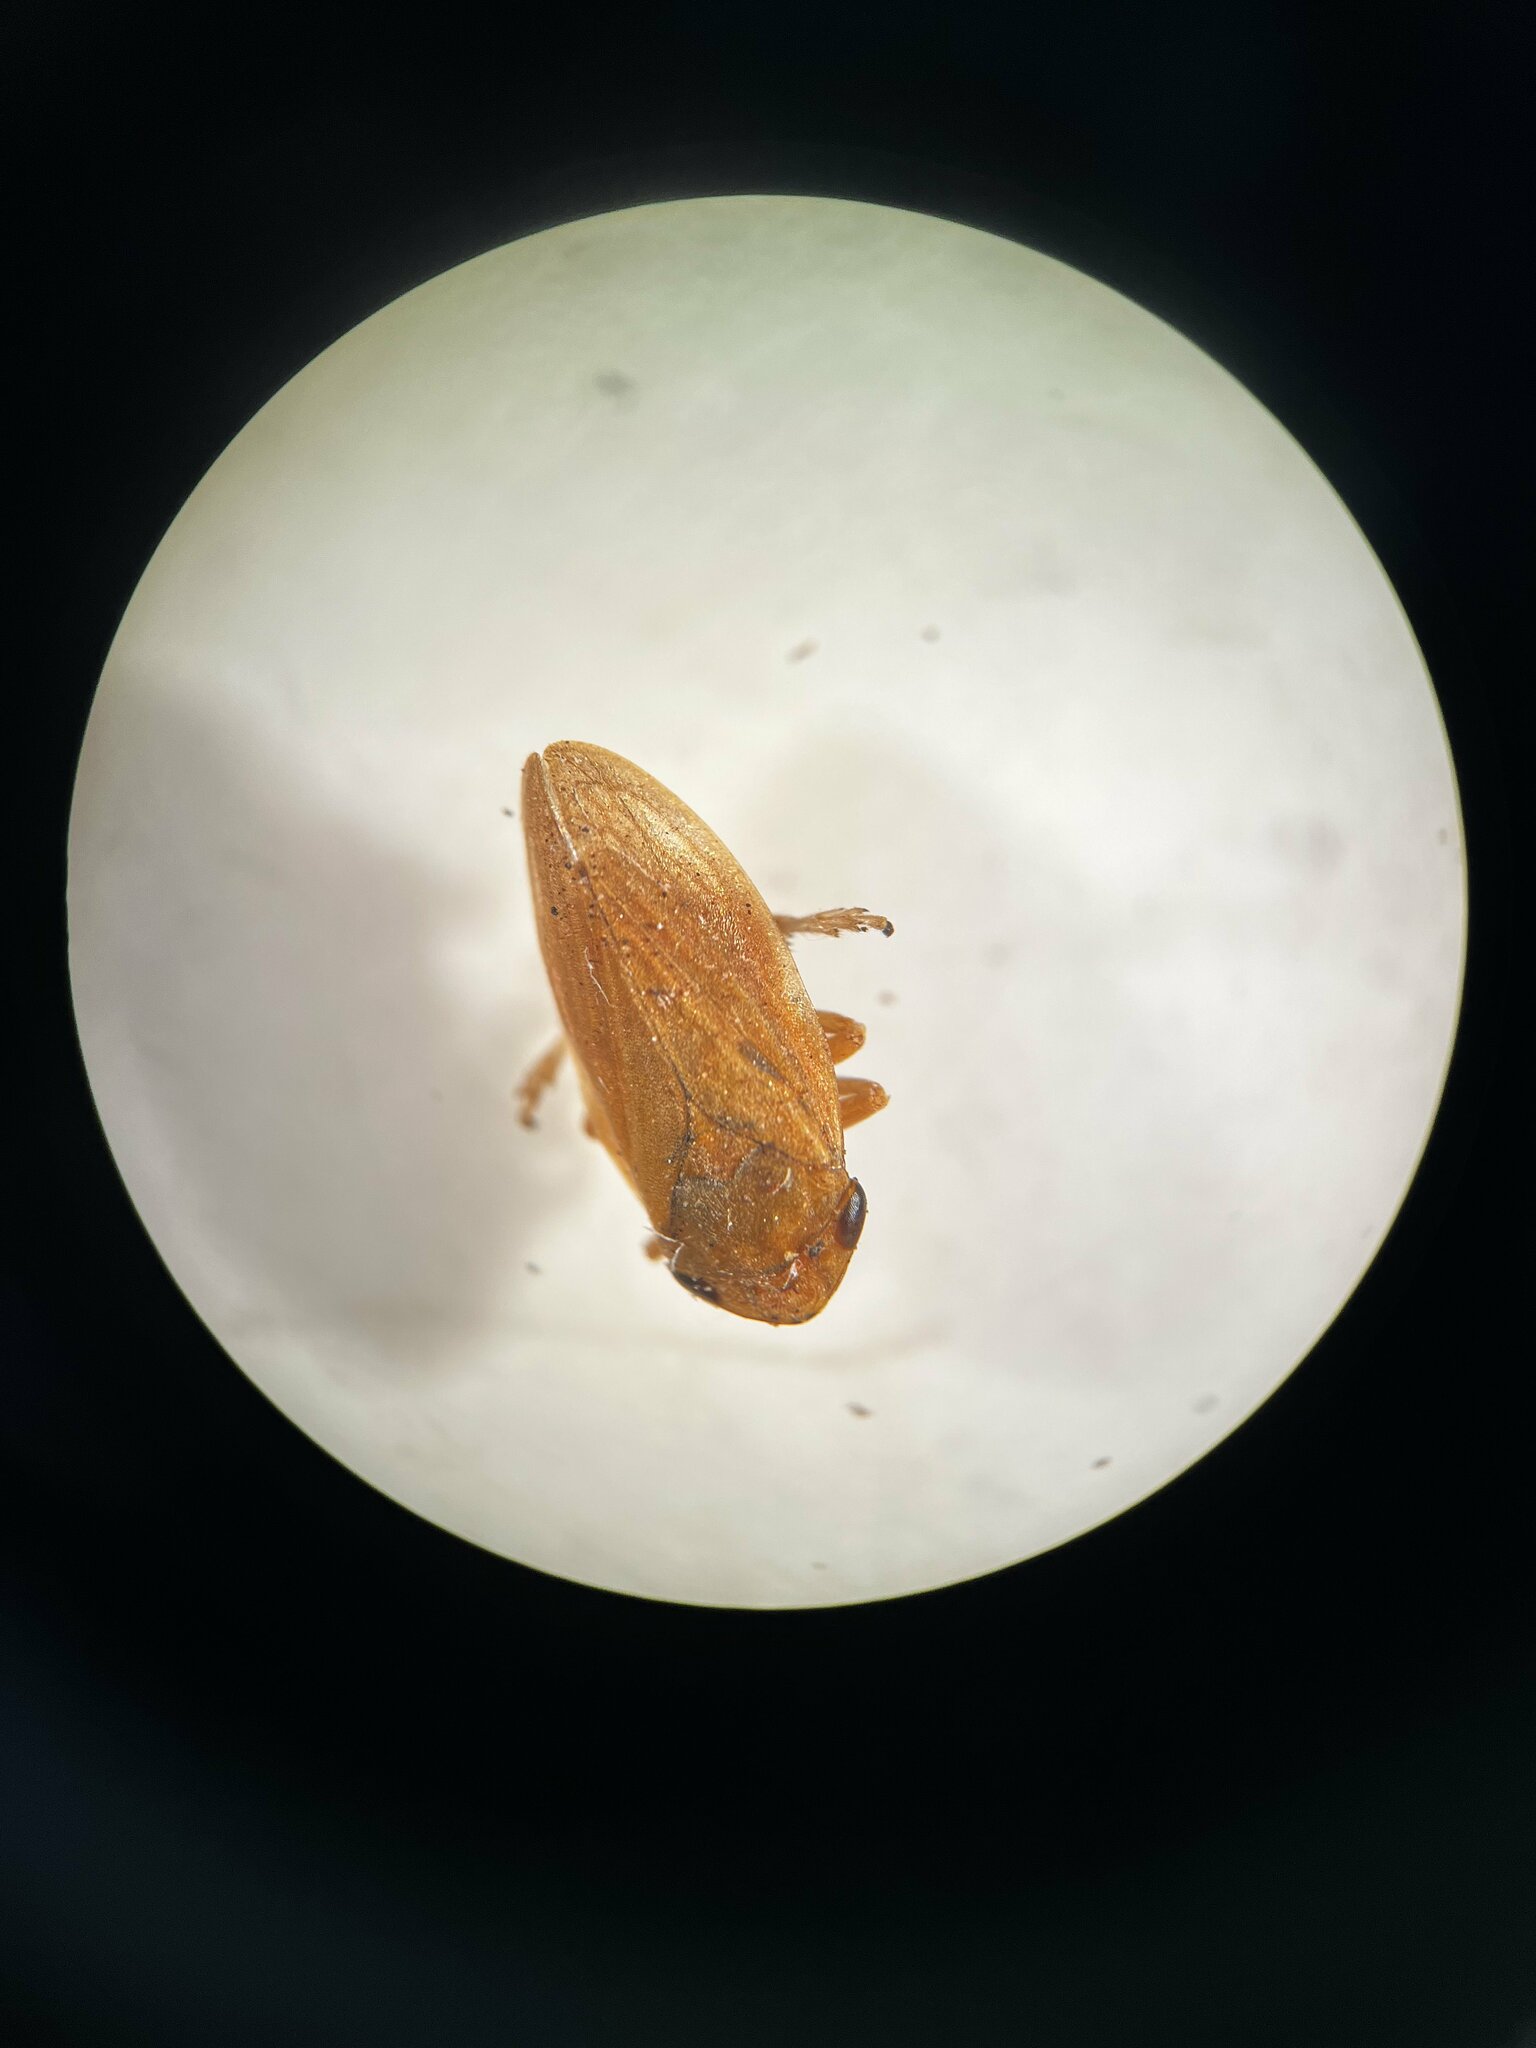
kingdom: Animalia
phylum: Arthropoda
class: Insecta
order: Hemiptera
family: Aphrophoridae
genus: Philaenus
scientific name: Philaenus spumarius
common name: Meadow spittlebug
